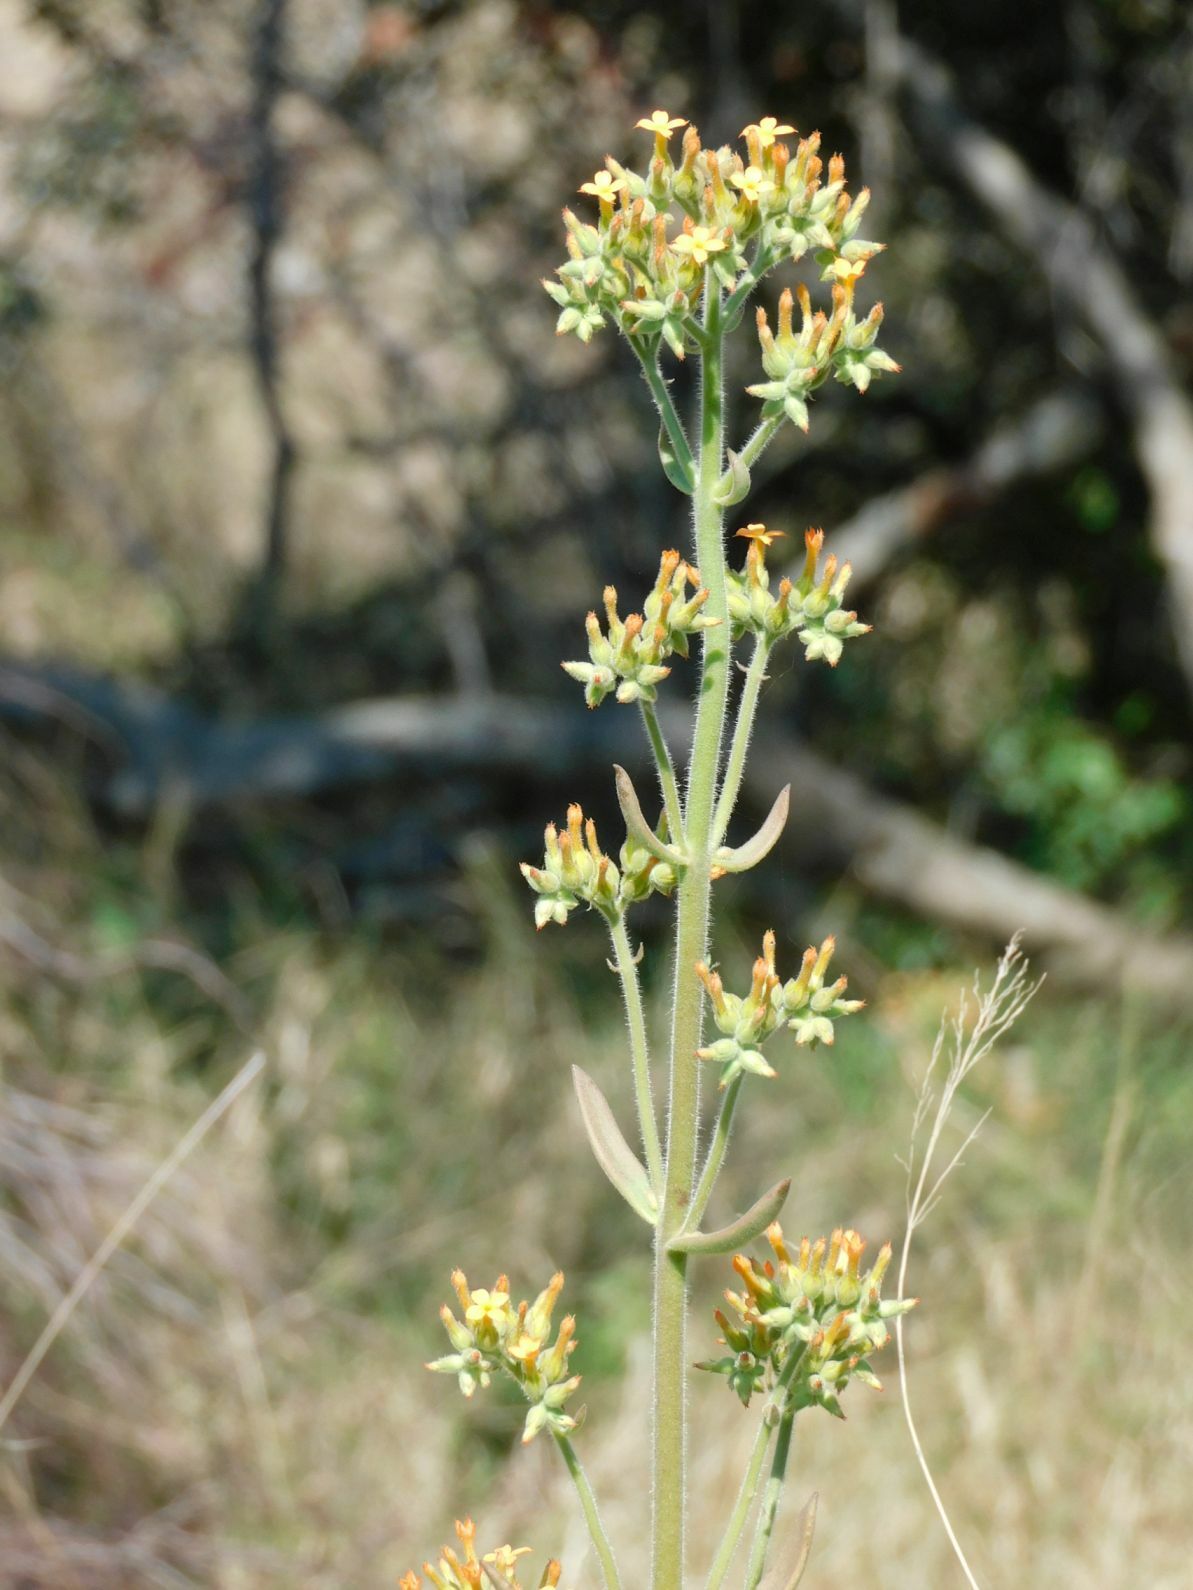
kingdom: Plantae
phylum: Tracheophyta
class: Magnoliopsida
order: Saxifragales
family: Crassulaceae
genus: Kalanchoe
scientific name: Kalanchoe lanceolata
